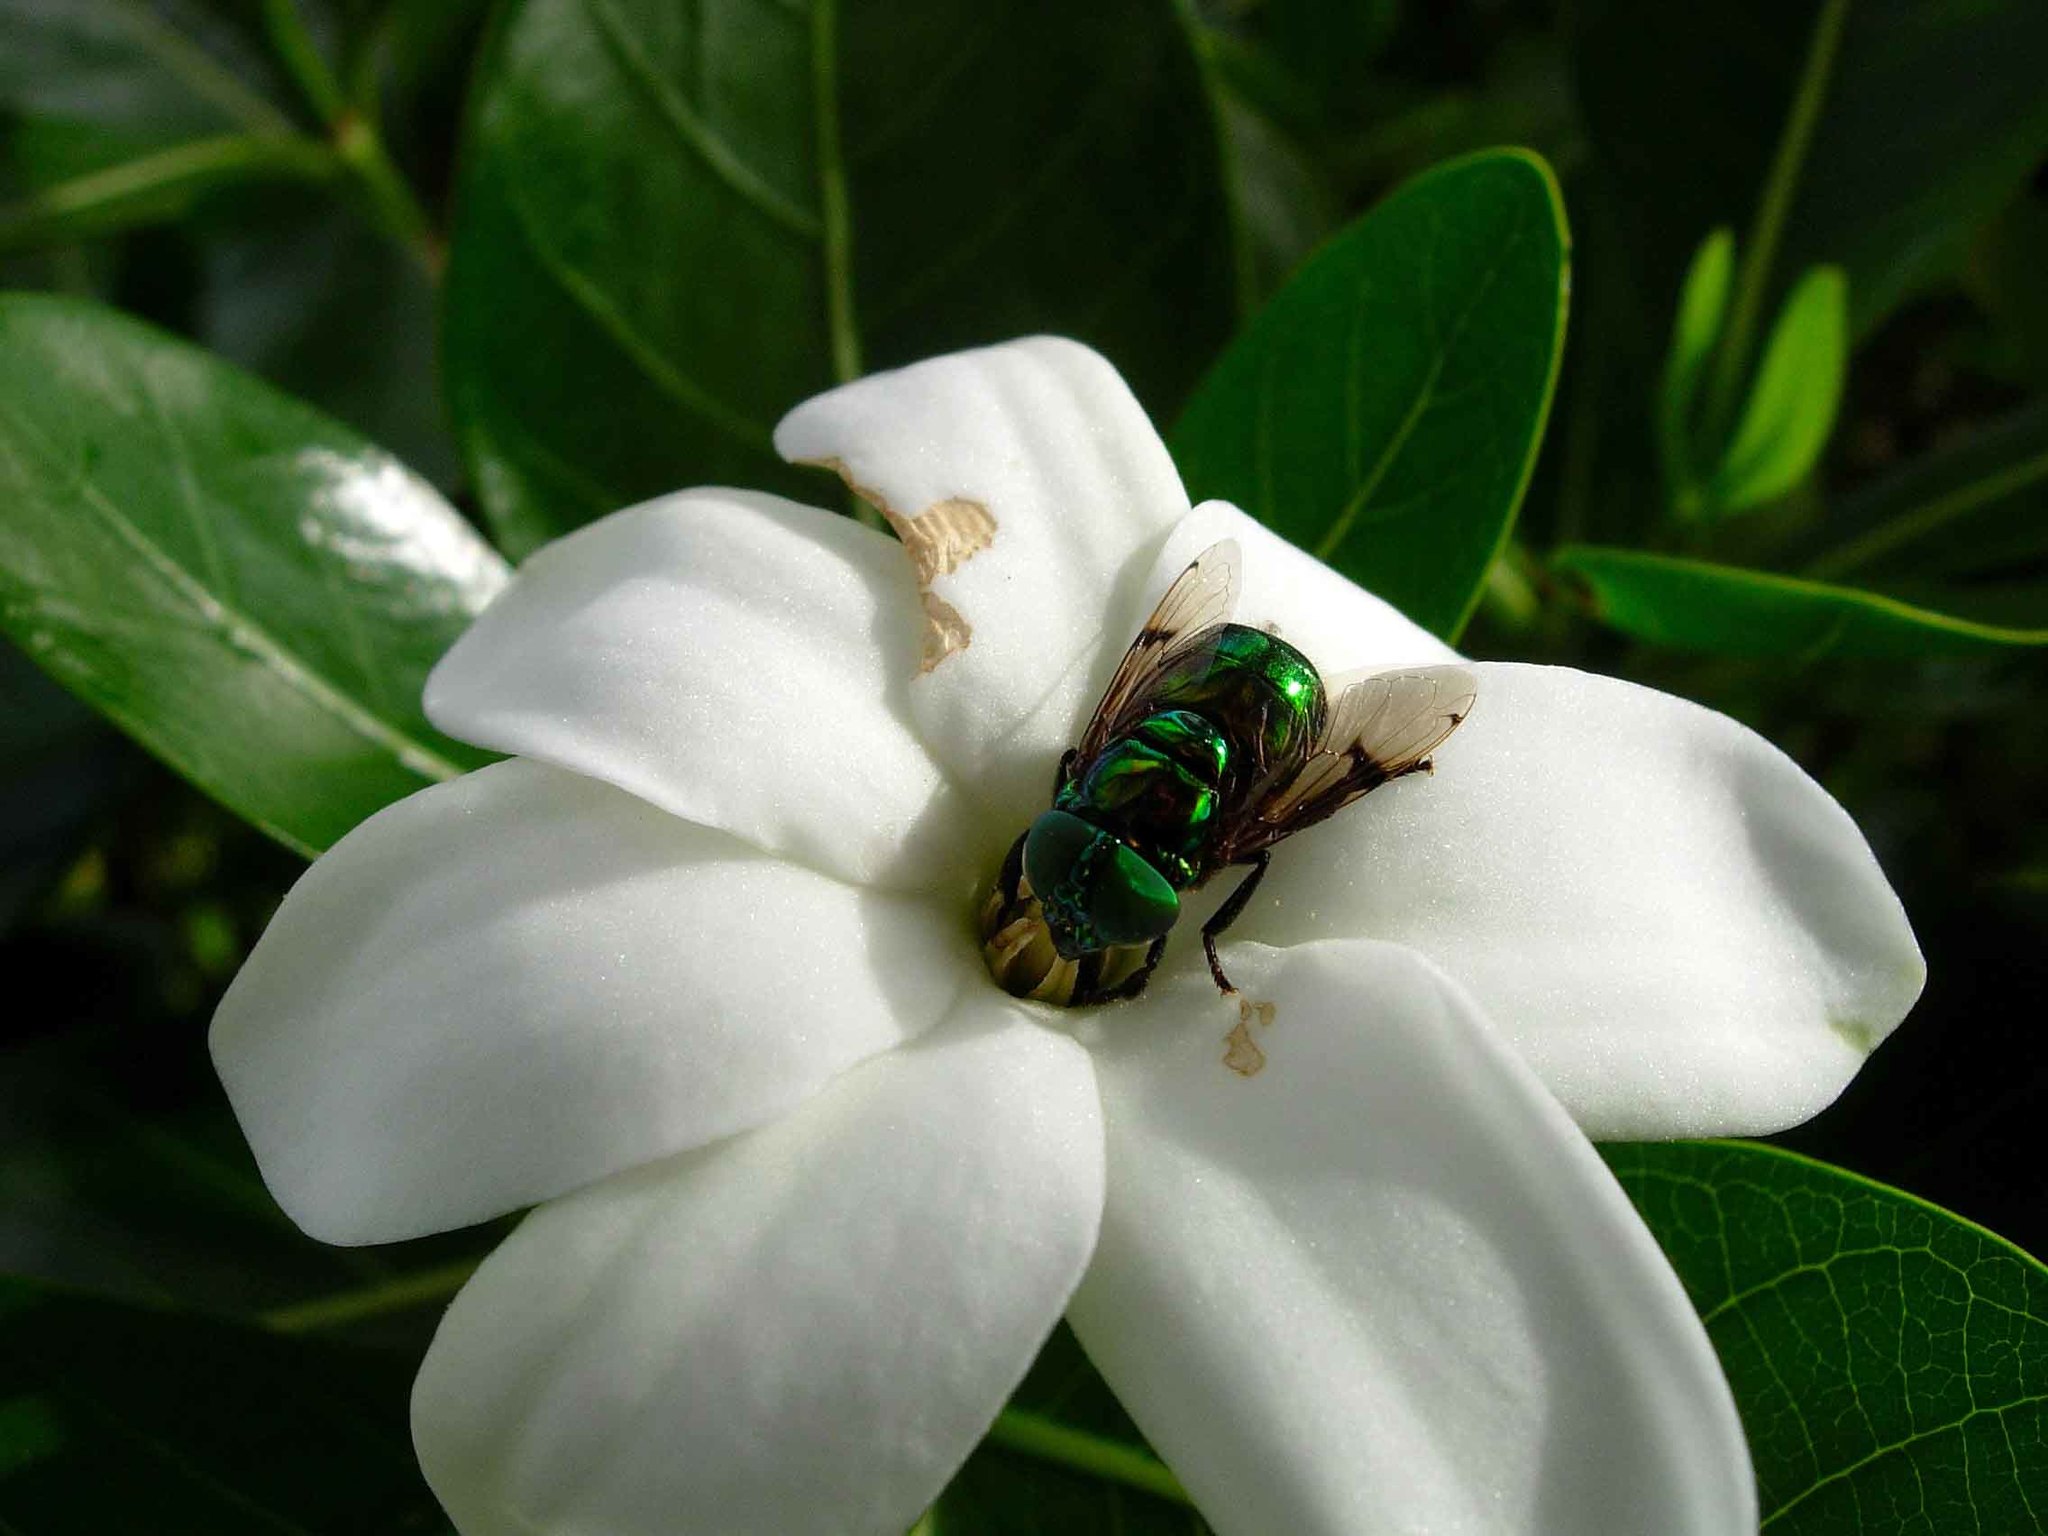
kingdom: Animalia
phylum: Arthropoda
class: Insecta
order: Diptera
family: Syrphidae
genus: Ornidia
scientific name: Ornidia obesa
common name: Syrphid fly
